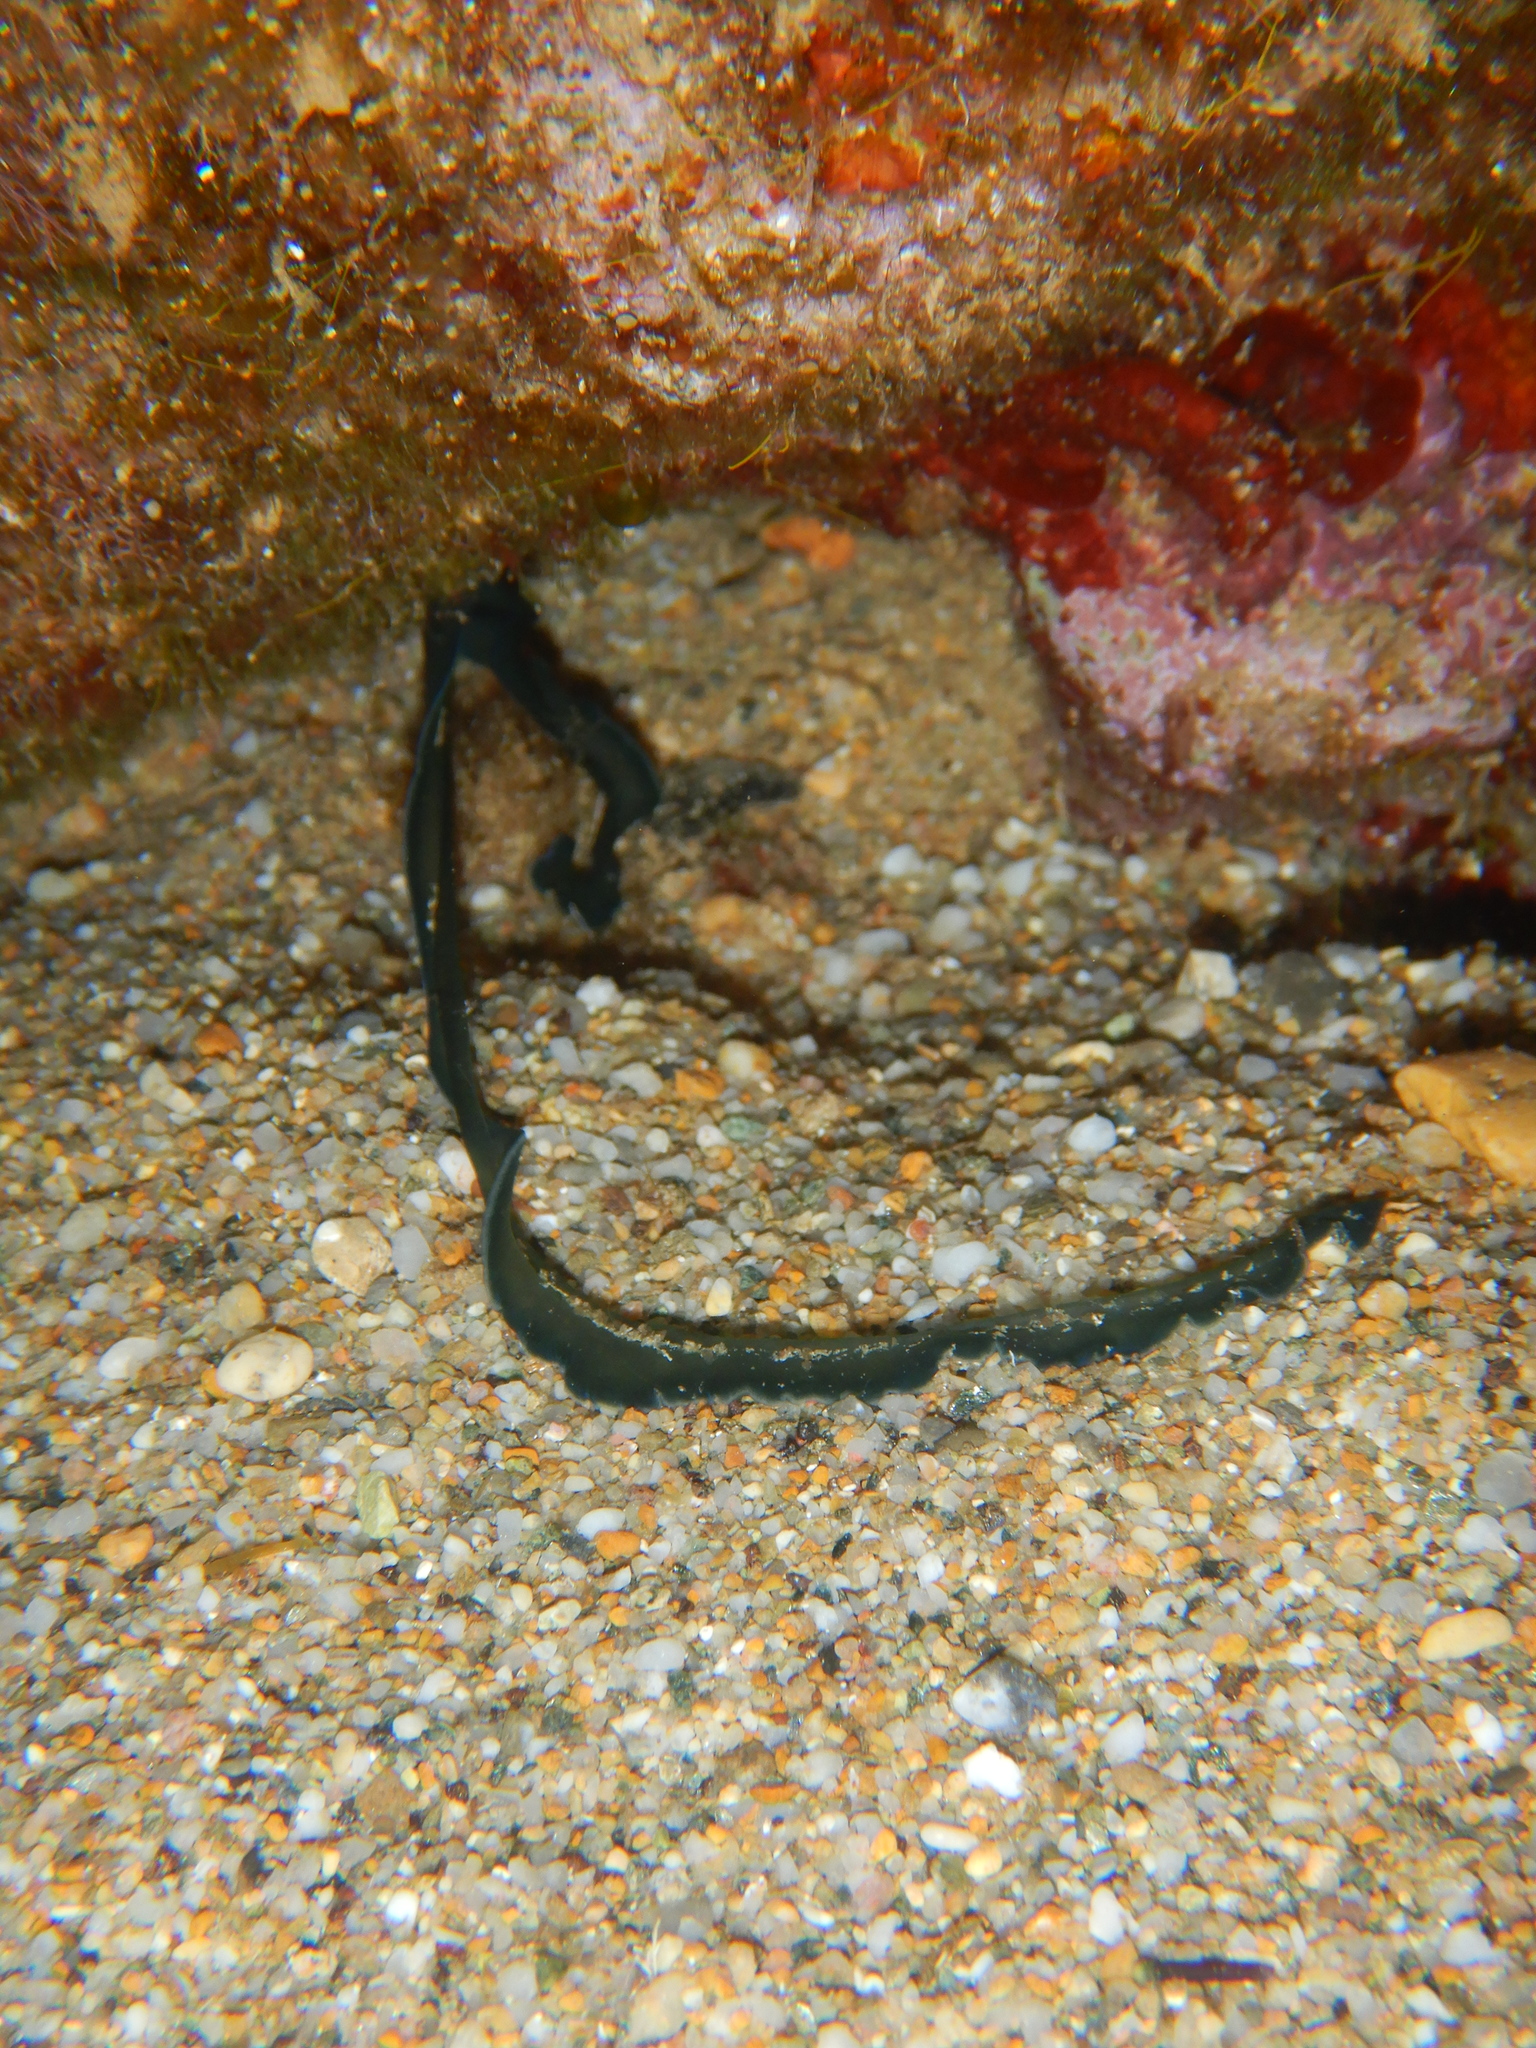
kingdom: Animalia
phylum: Annelida
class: Polychaeta
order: Echiuroidea
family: Bonelliidae
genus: Bonellia
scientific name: Bonellia viridis
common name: Green spoon worm
